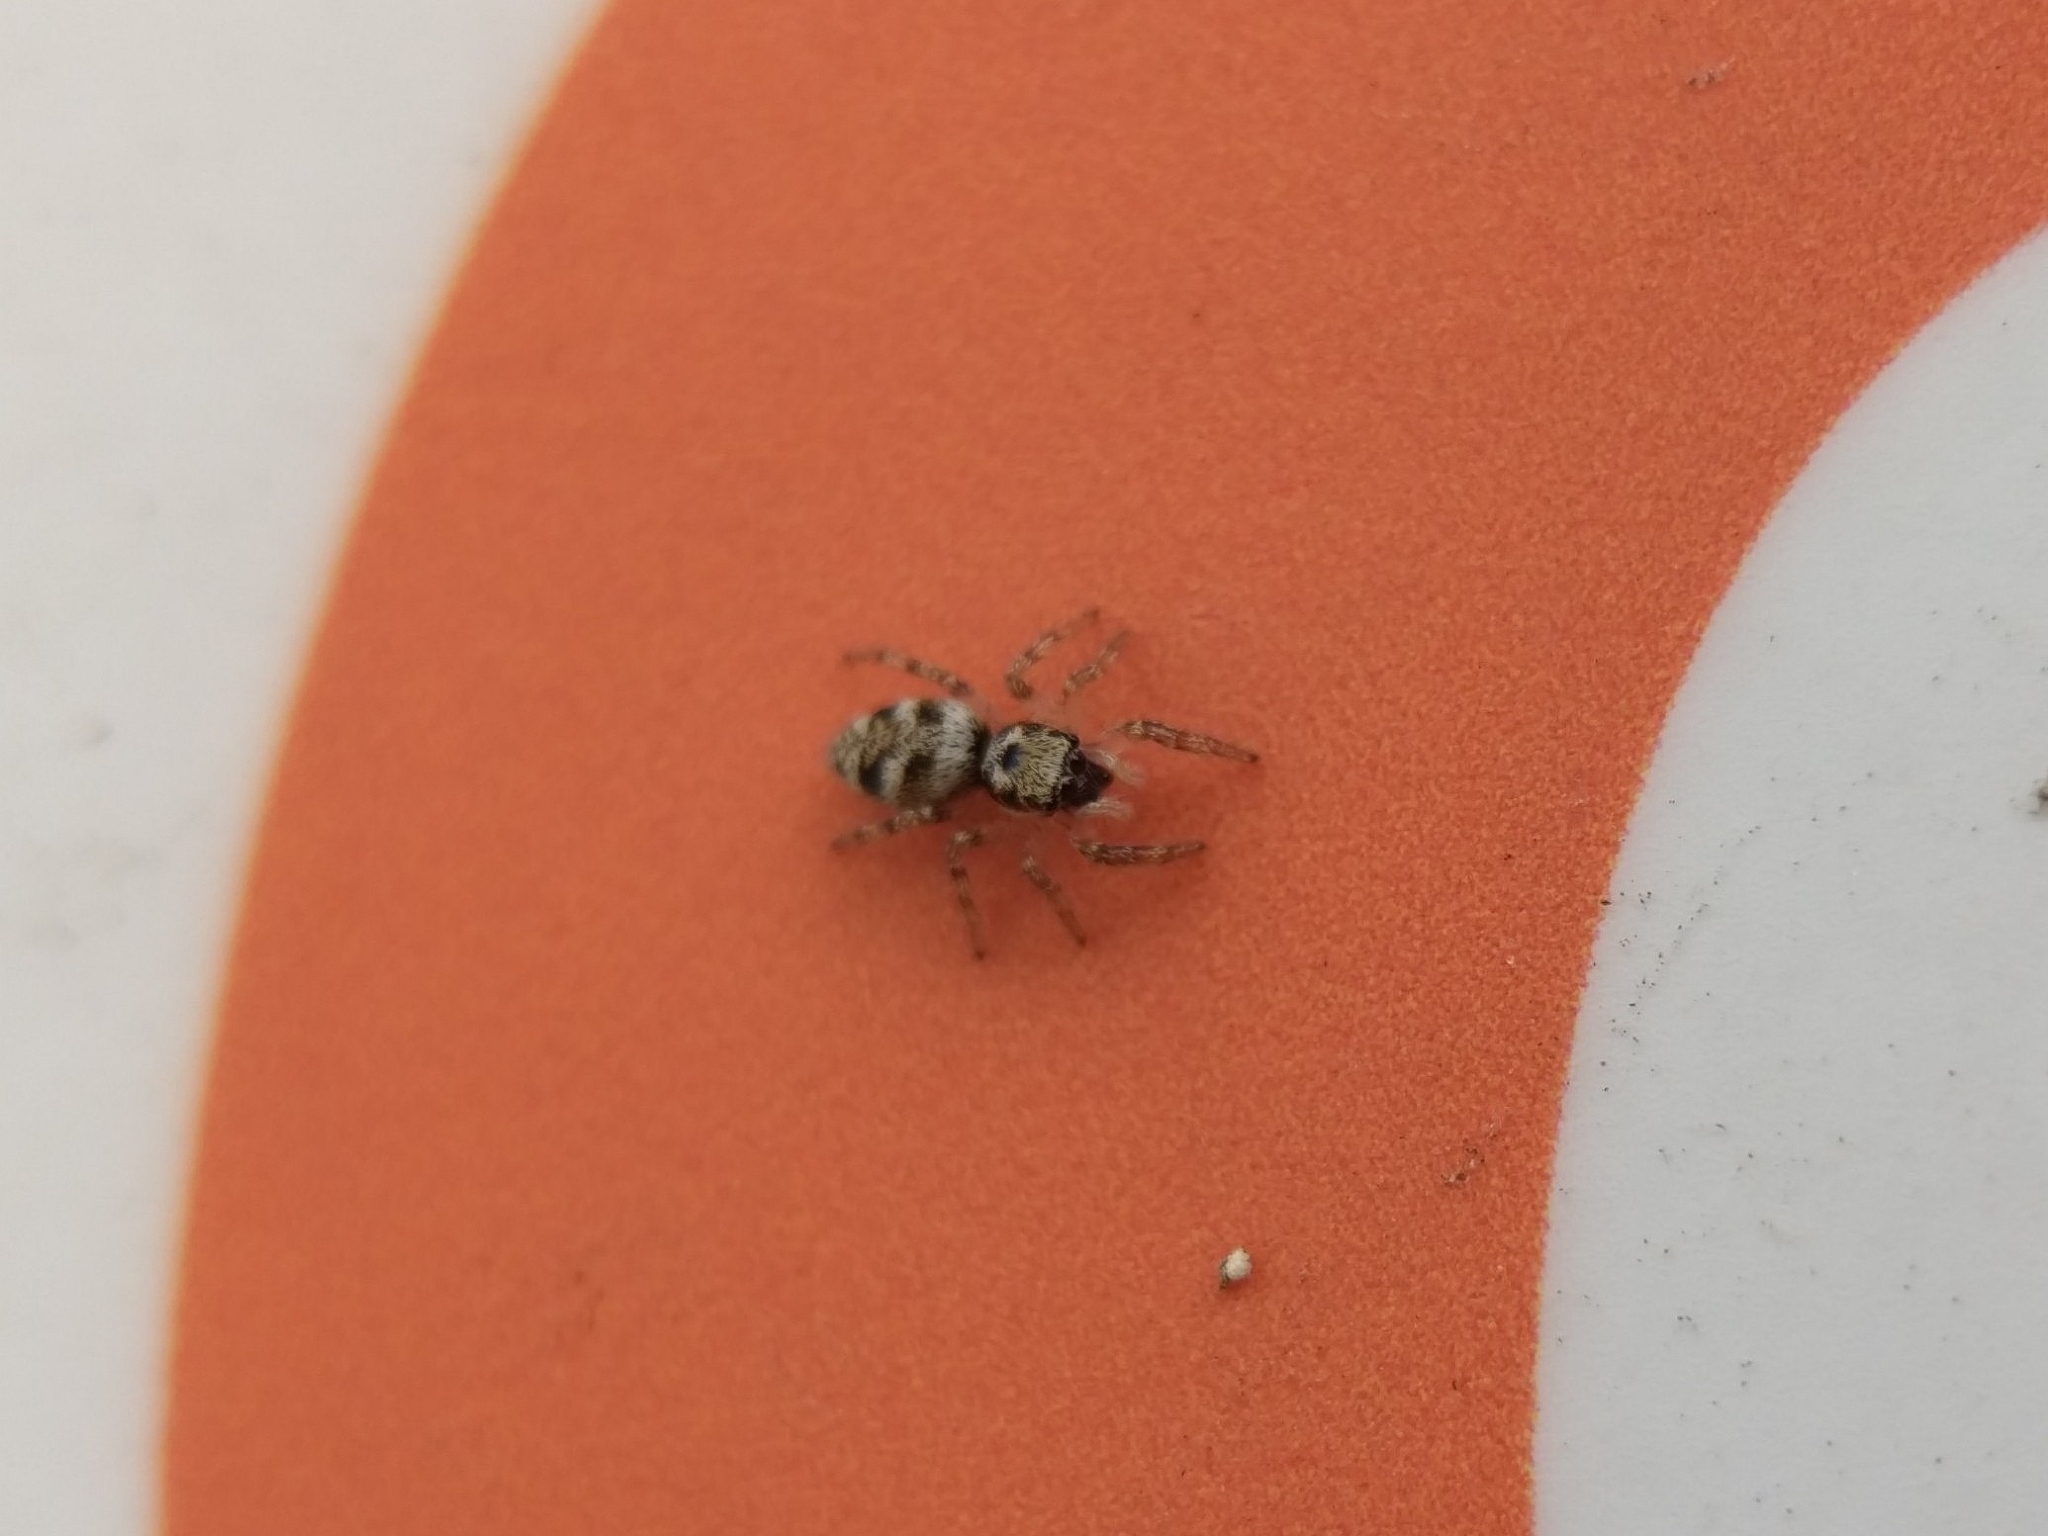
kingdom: Animalia
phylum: Arthropoda
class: Arachnida
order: Araneae
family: Salticidae
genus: Salticus
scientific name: Salticus scenicus
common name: Zebra jumper
